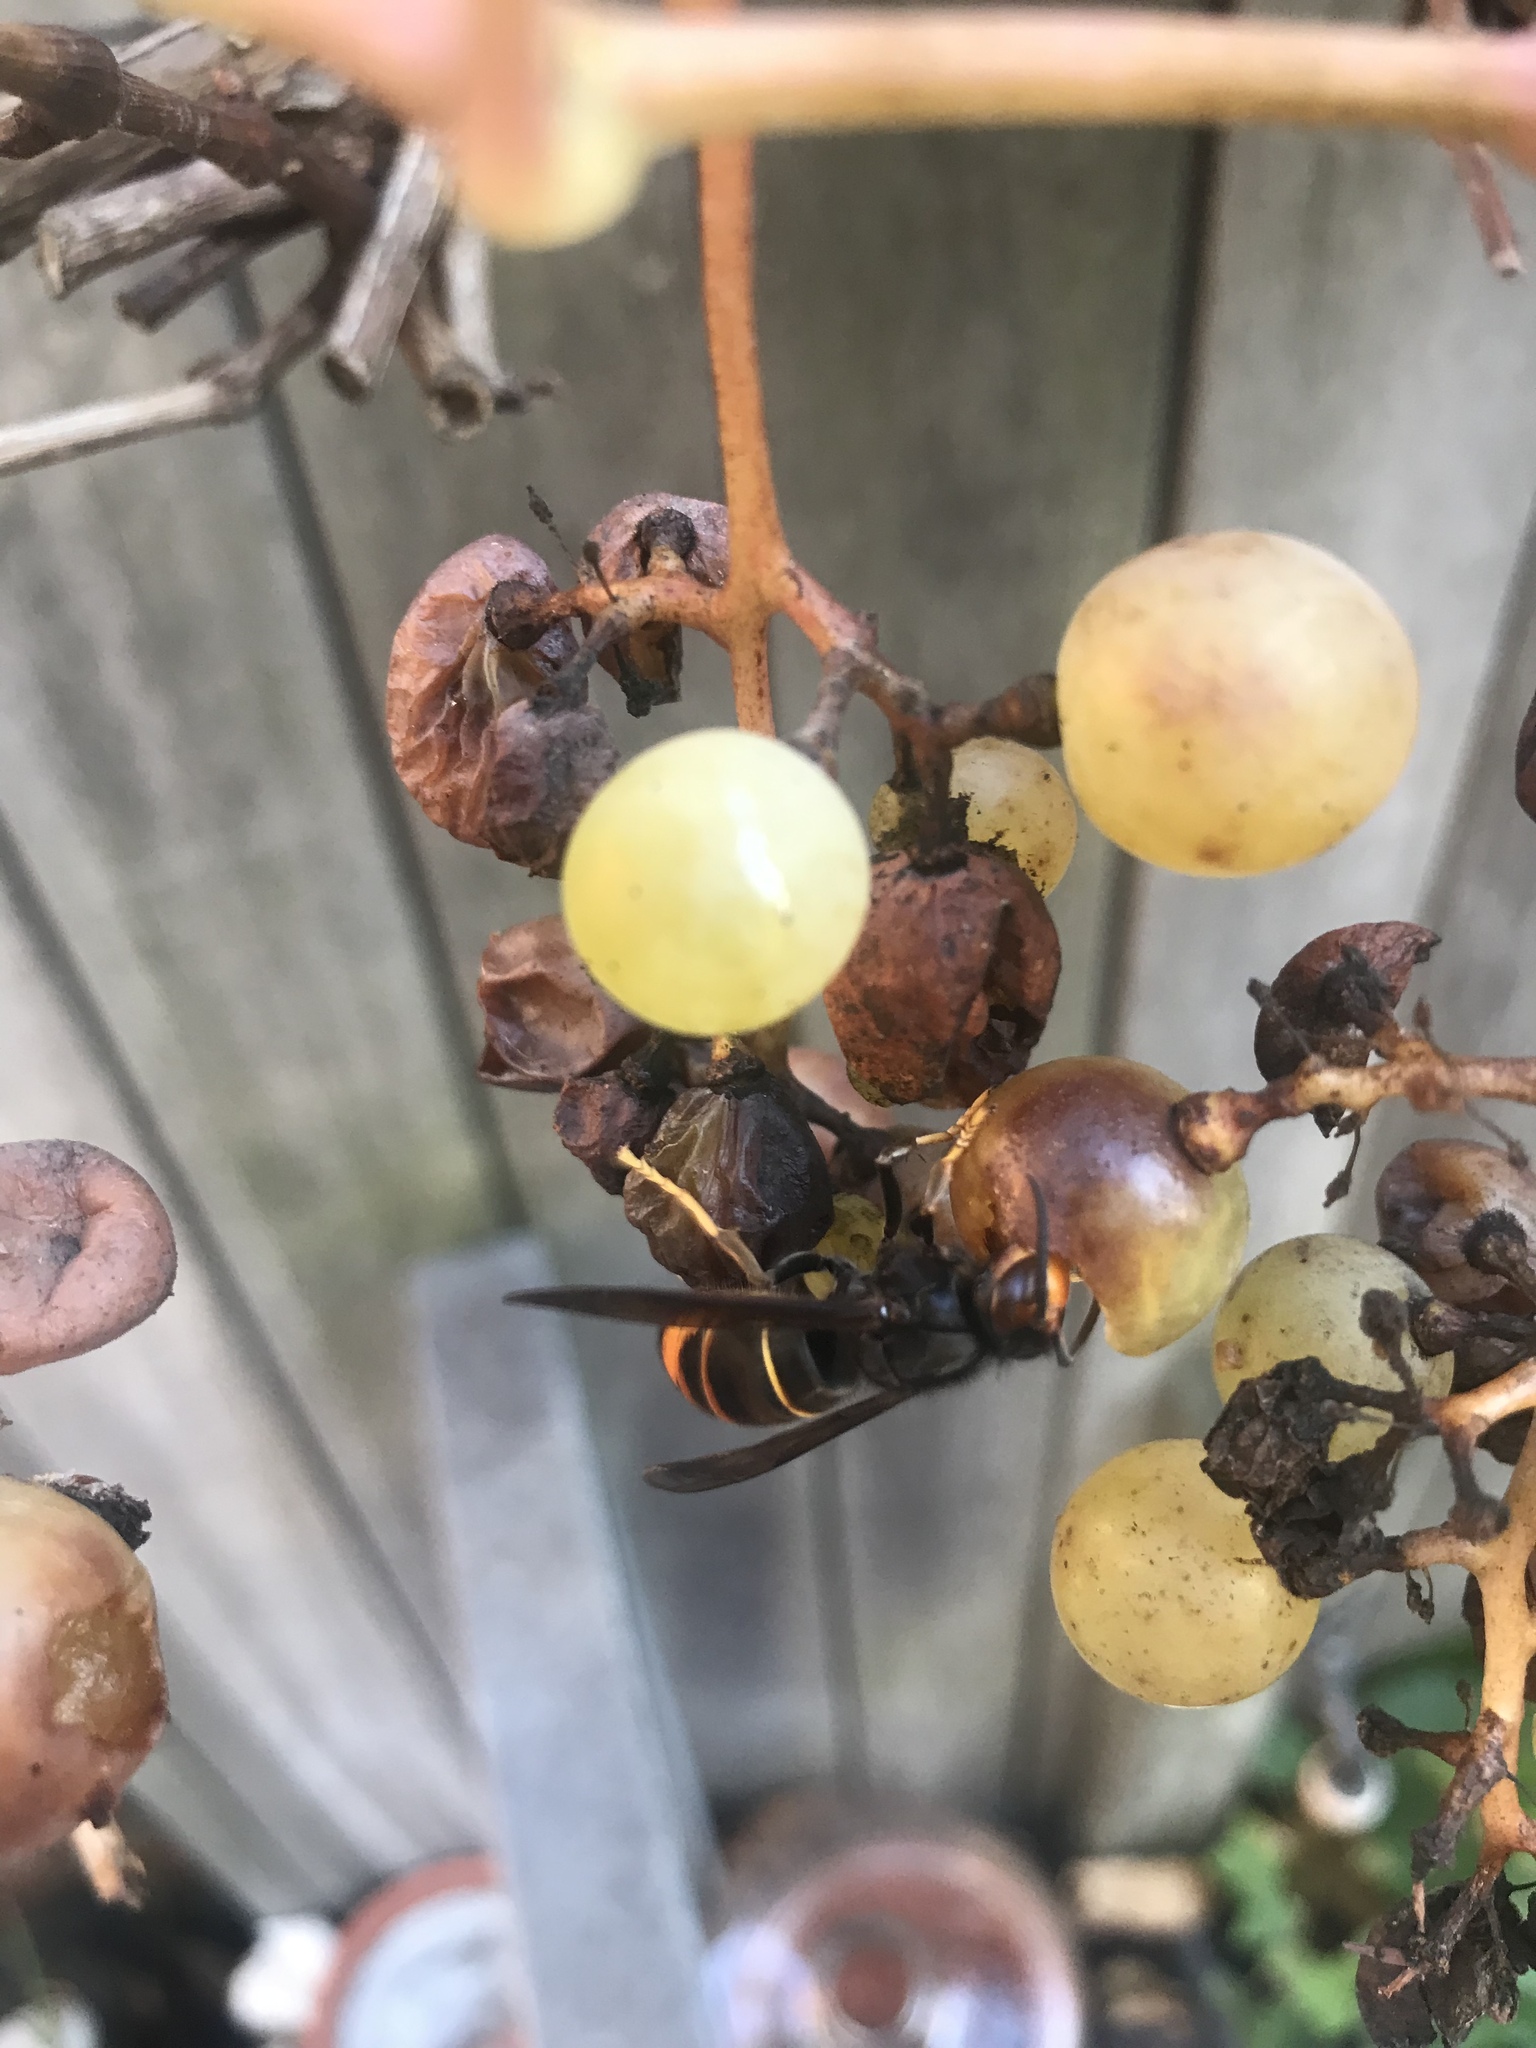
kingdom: Animalia
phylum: Arthropoda
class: Insecta
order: Hymenoptera
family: Vespidae
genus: Vespa
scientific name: Vespa velutina
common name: Asian hornet
